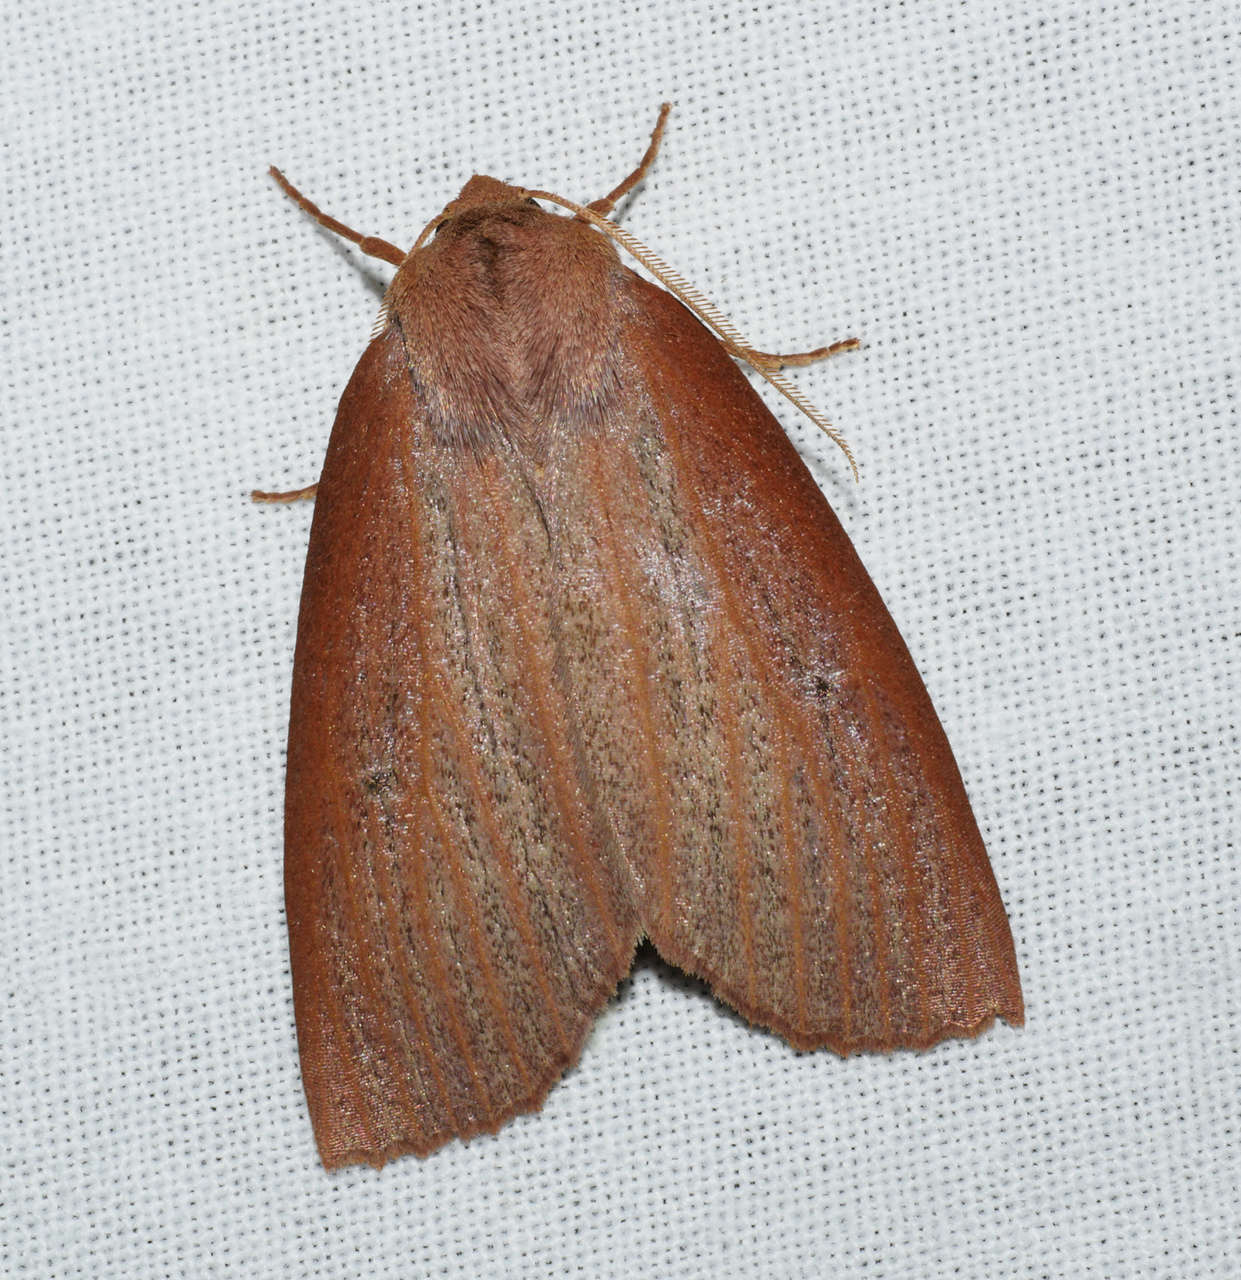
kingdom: Animalia
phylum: Arthropoda
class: Insecta
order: Lepidoptera
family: Geometridae
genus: Paralaea
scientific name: Paralaea porphyrinaria
